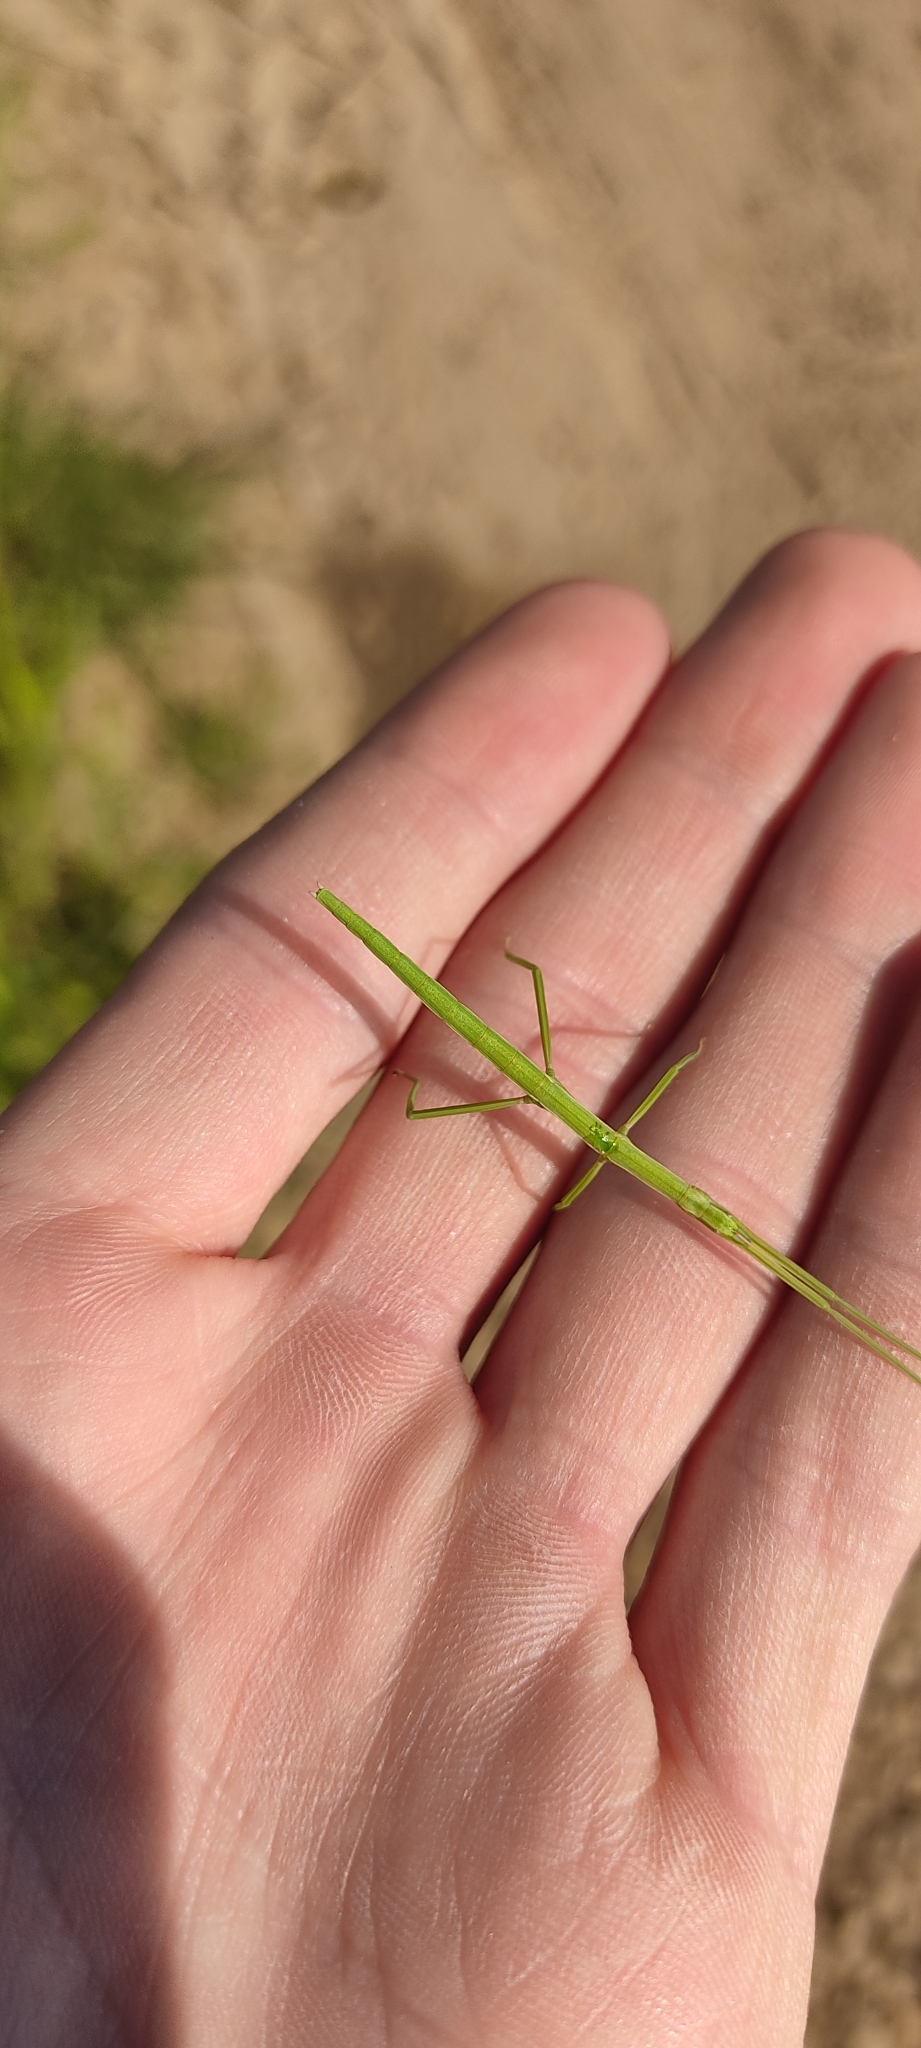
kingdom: Animalia
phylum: Arthropoda
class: Insecta
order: Phasmida
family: Bacillidae
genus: Clonopsis
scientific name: Clonopsis gallica
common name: French stick insect
